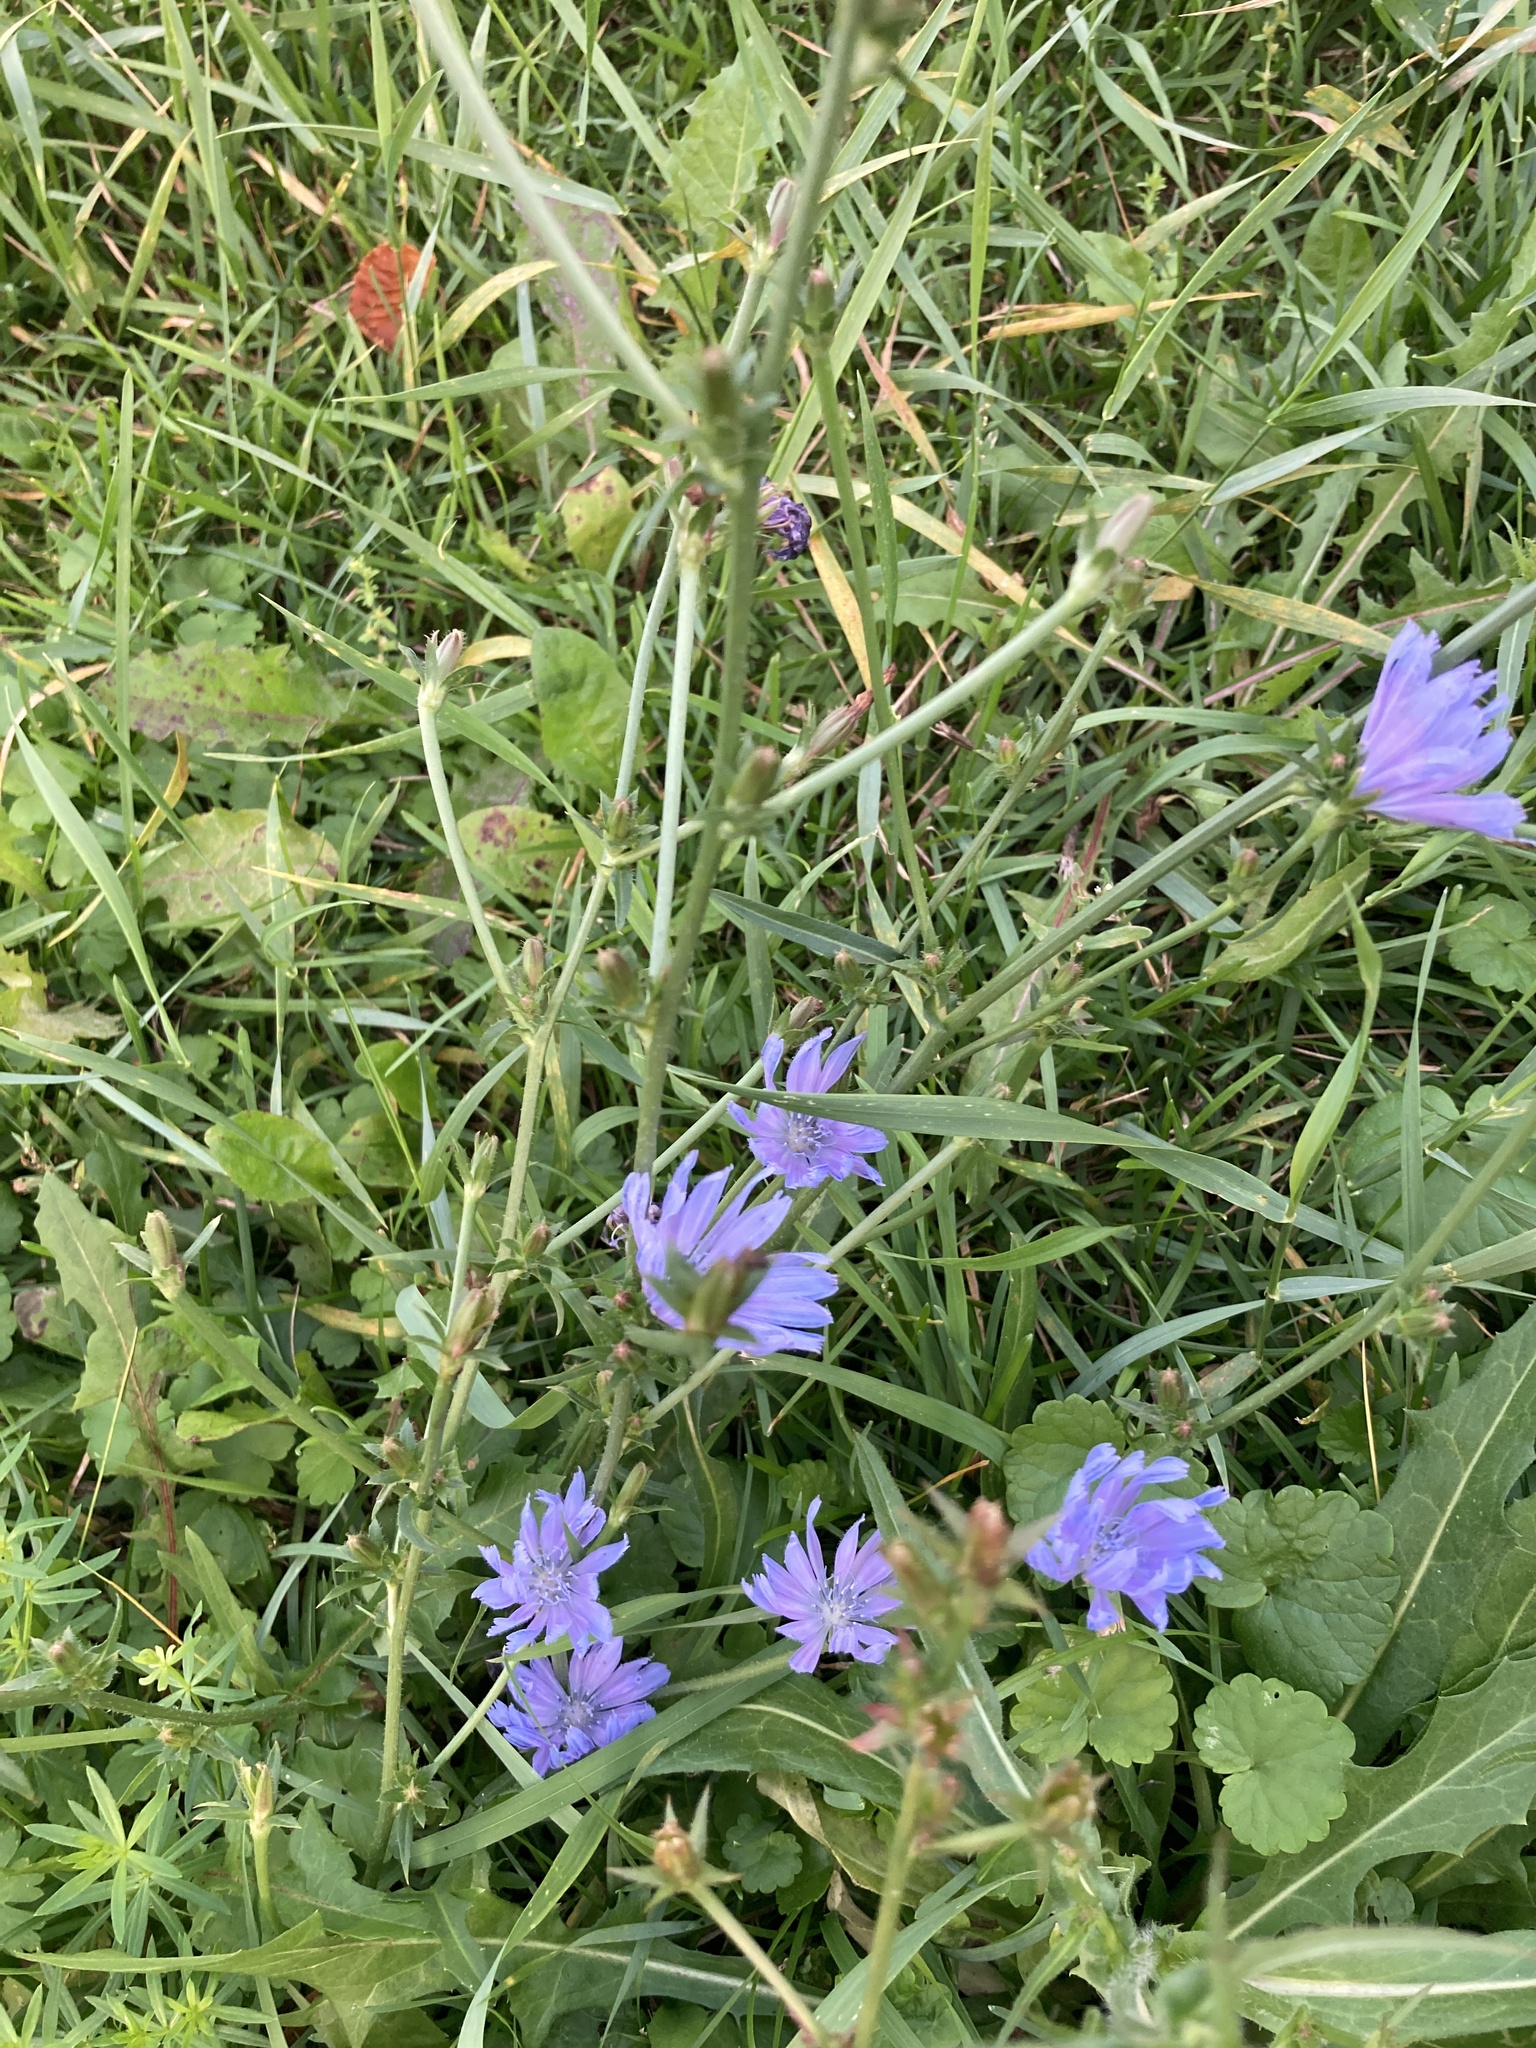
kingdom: Plantae
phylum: Tracheophyta
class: Magnoliopsida
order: Asterales
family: Asteraceae
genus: Cichorium
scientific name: Cichorium intybus
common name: Chicory
